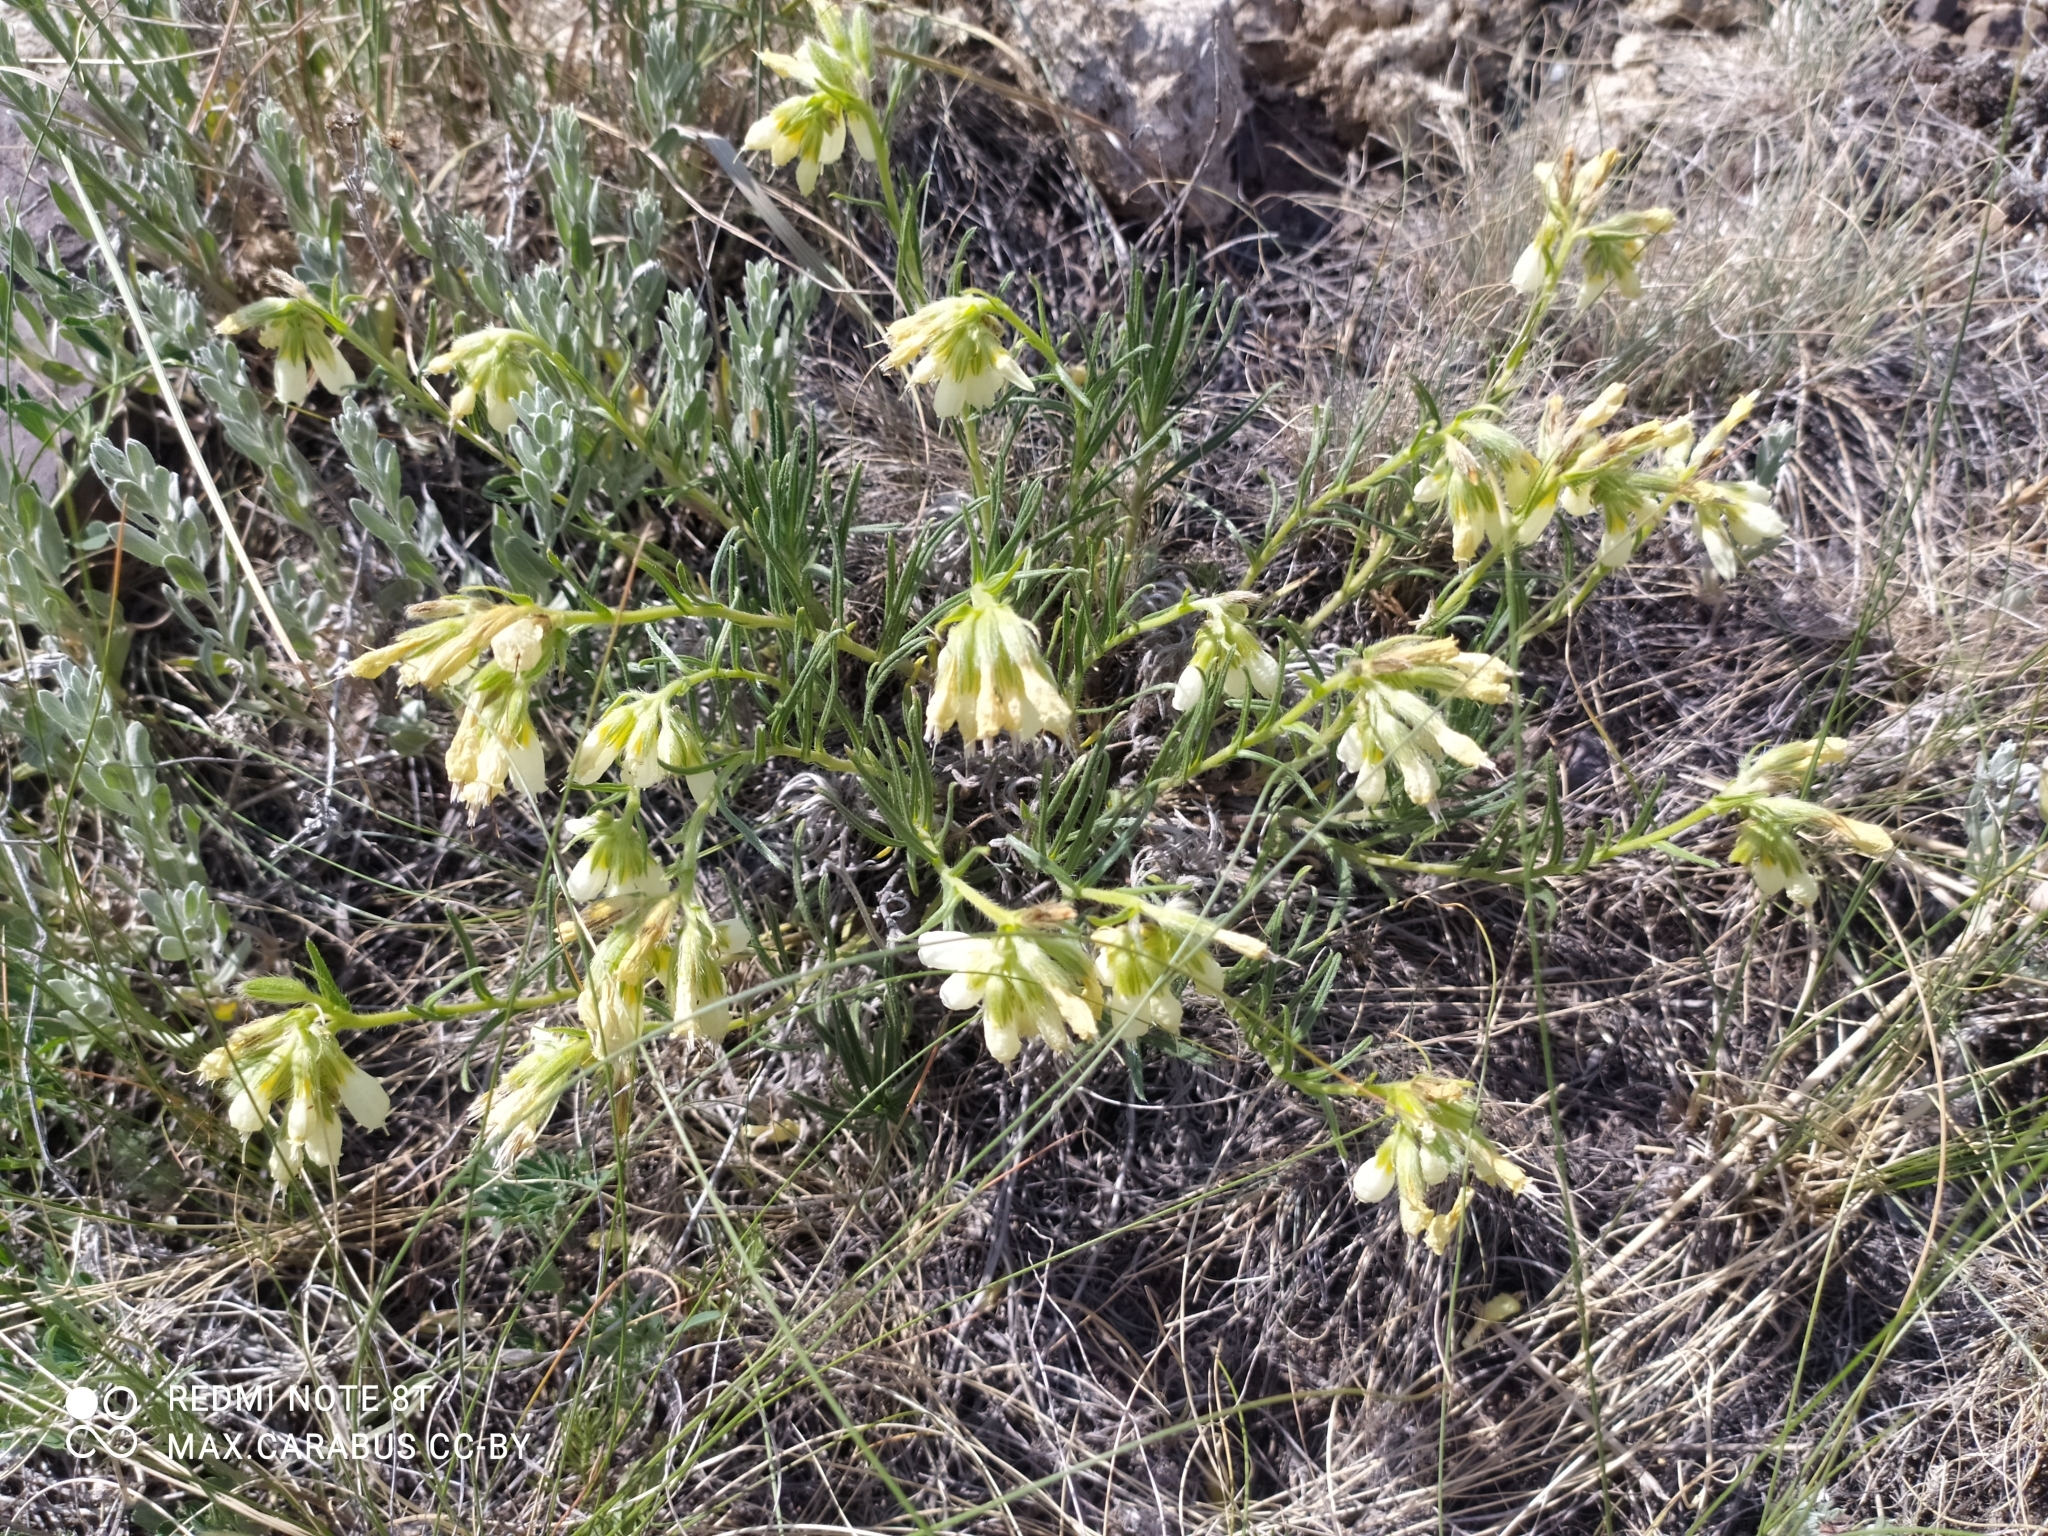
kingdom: Plantae
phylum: Tracheophyta
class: Magnoliopsida
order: Boraginales
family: Boraginaceae
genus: Onosma
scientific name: Onosma simplicissima
